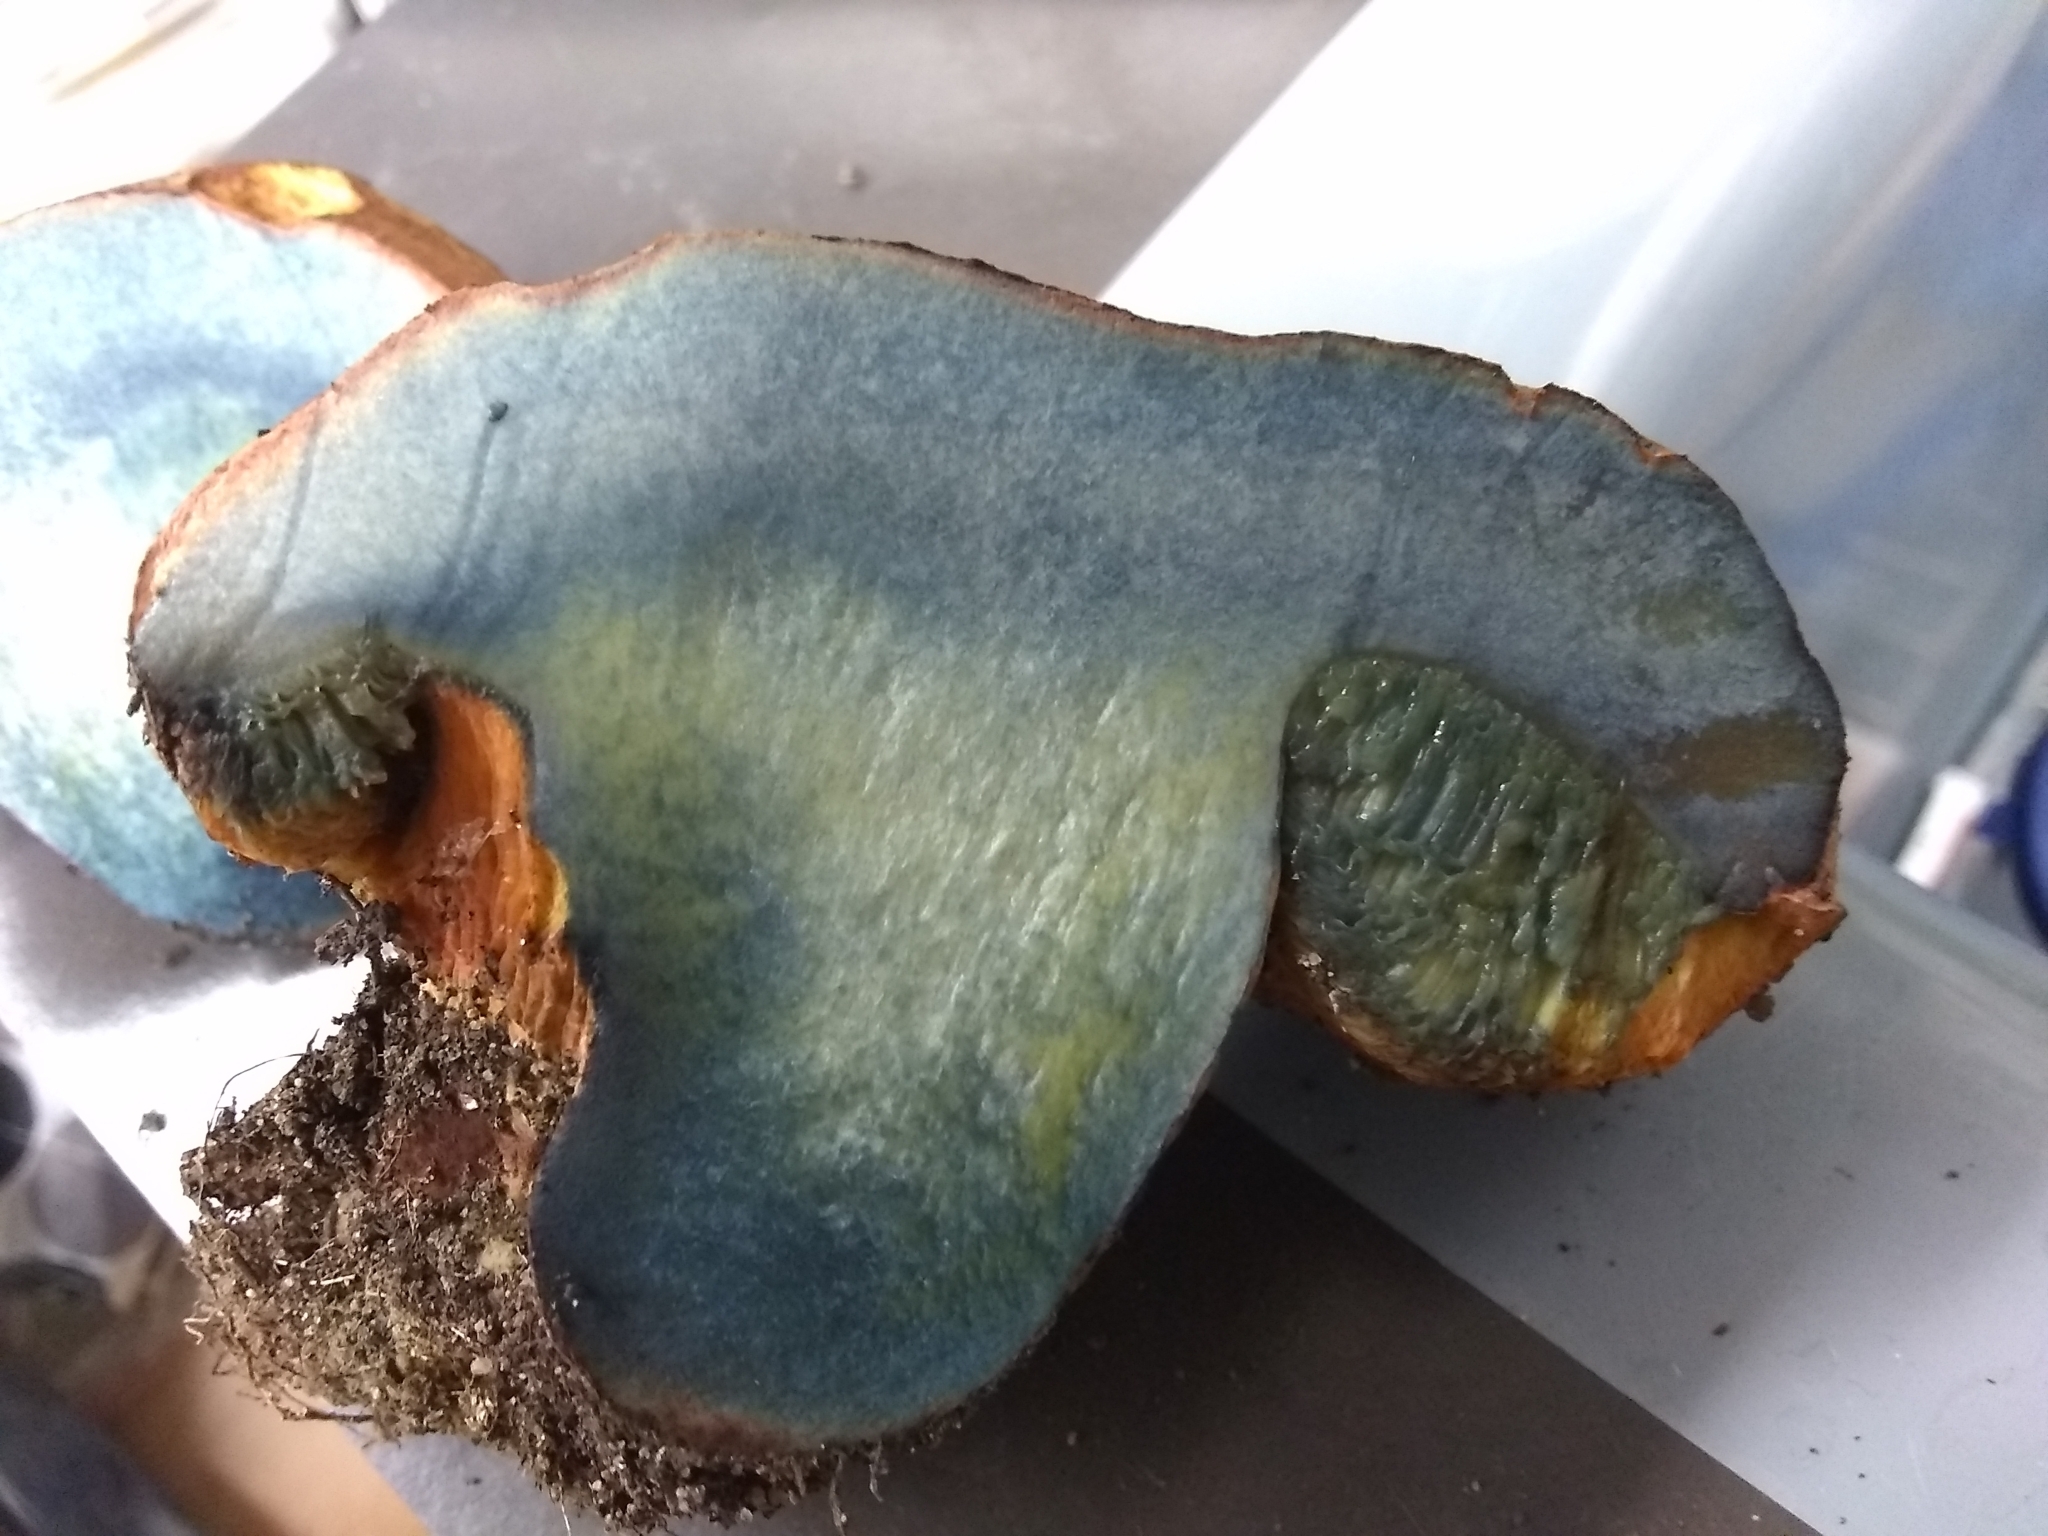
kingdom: Fungi
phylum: Basidiomycota
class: Agaricomycetes
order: Boletales
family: Boletaceae
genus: Suillellus
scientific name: Suillellus amygdalinus
